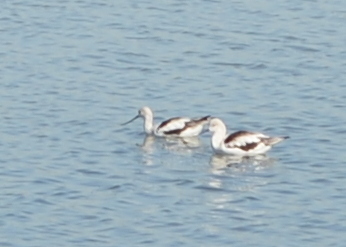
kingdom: Animalia
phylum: Chordata
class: Aves
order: Charadriiformes
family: Recurvirostridae
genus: Recurvirostra
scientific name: Recurvirostra americana
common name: American avocet
